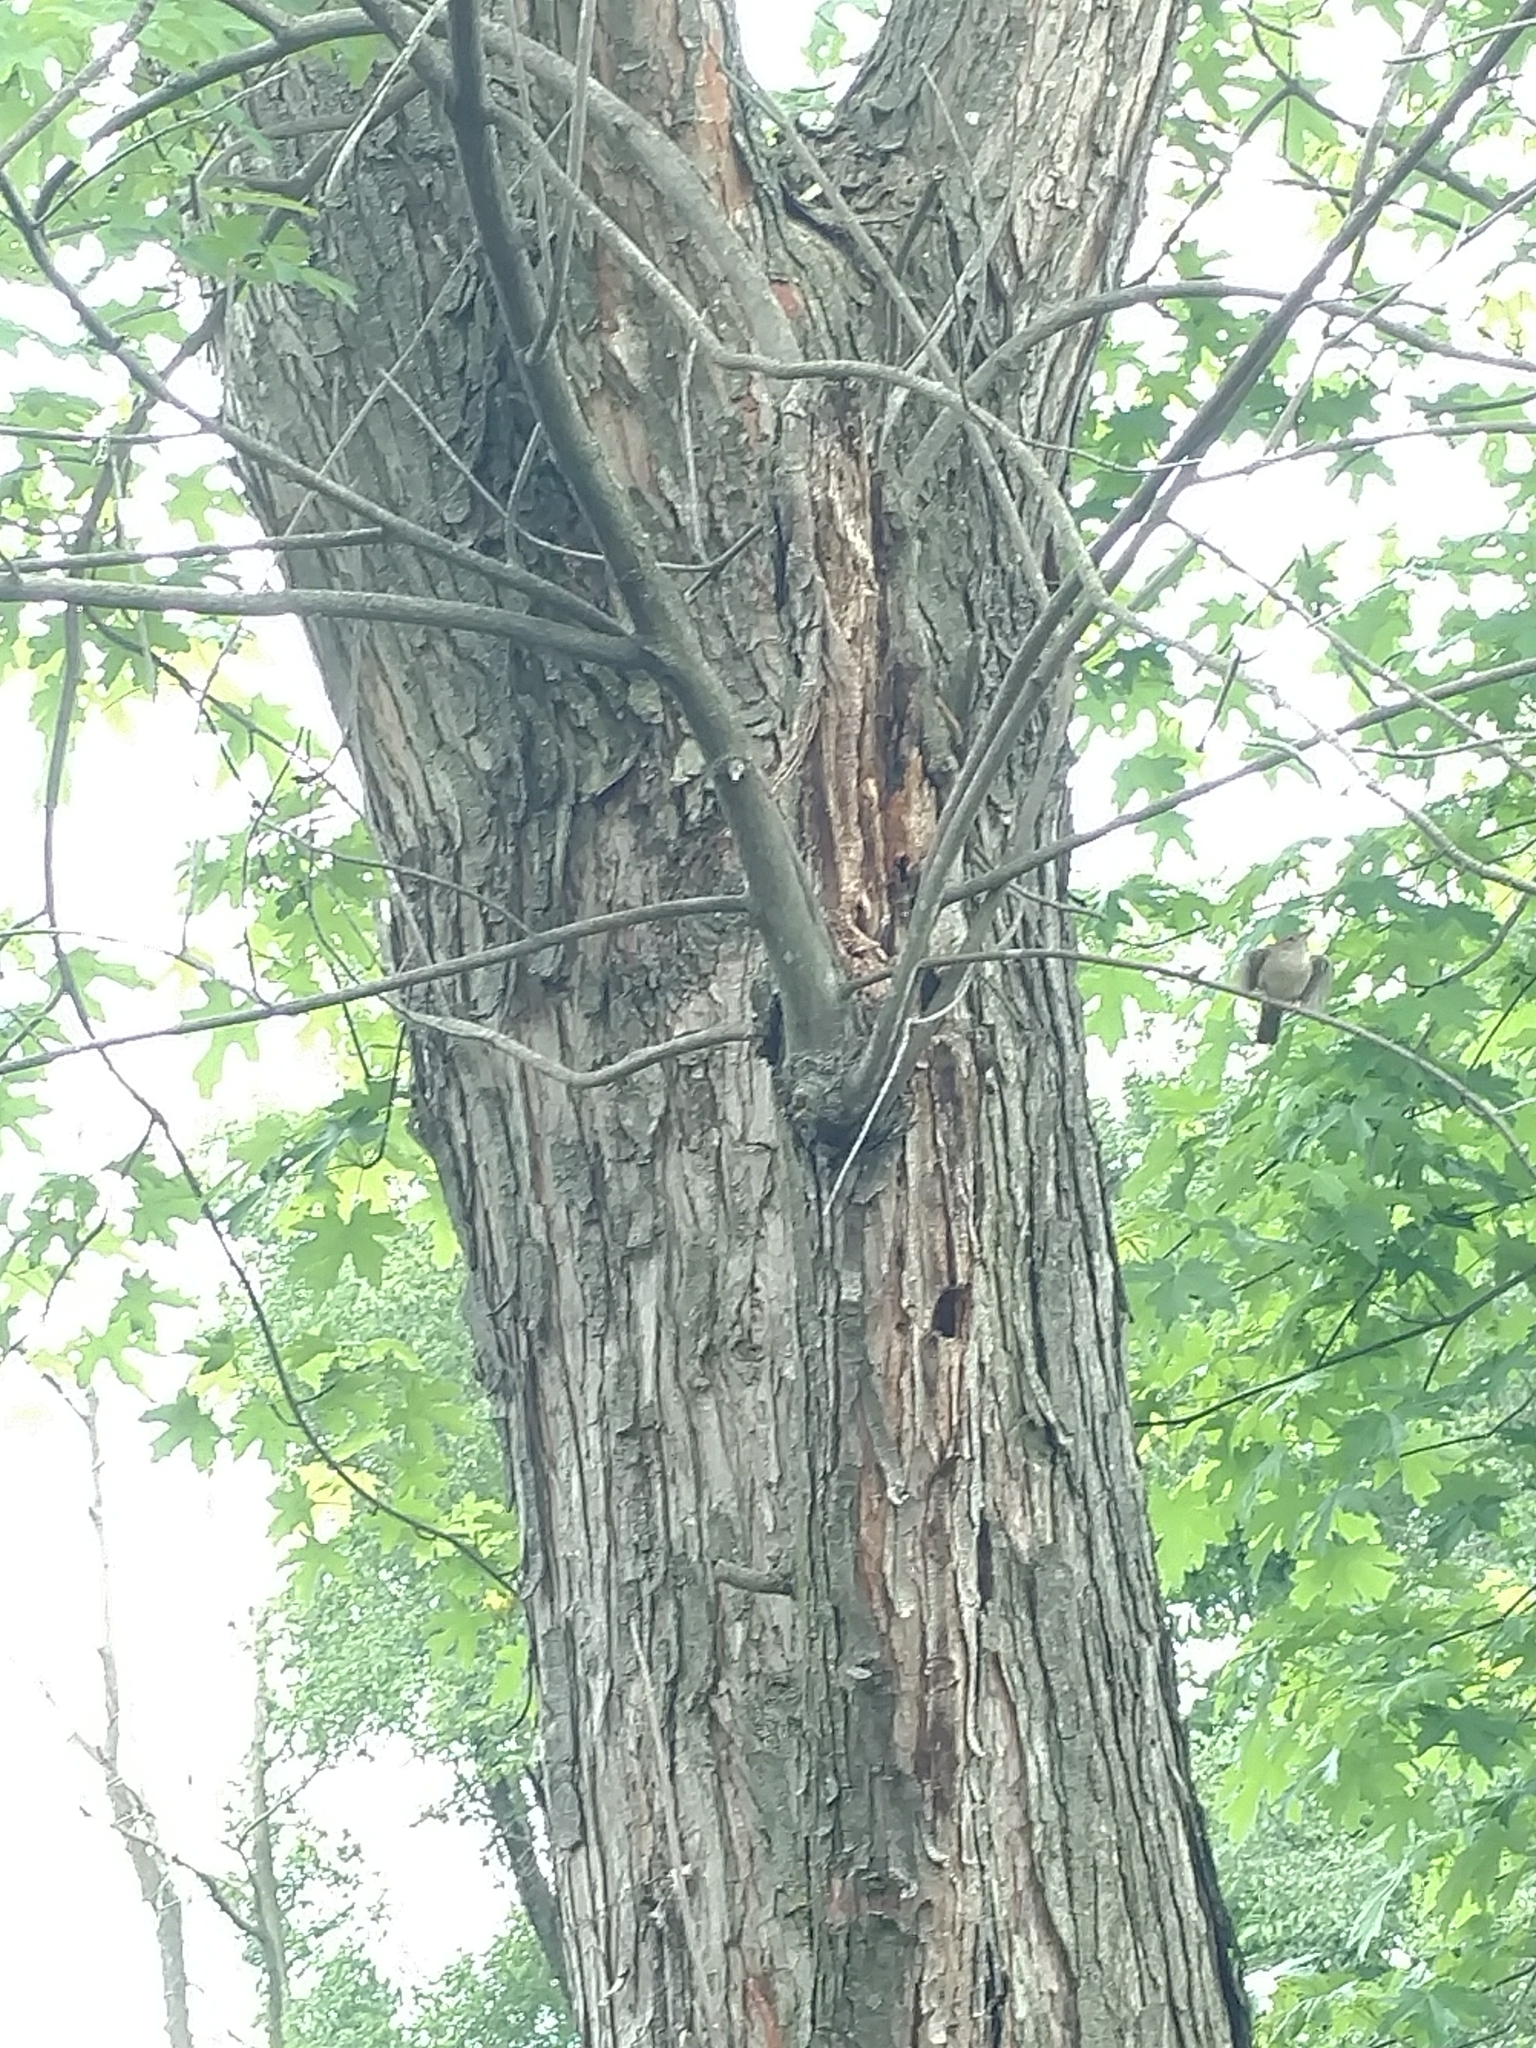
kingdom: Animalia
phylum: Chordata
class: Aves
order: Passeriformes
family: Troglodytidae
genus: Troglodytes
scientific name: Troglodytes aedon
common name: House wren
